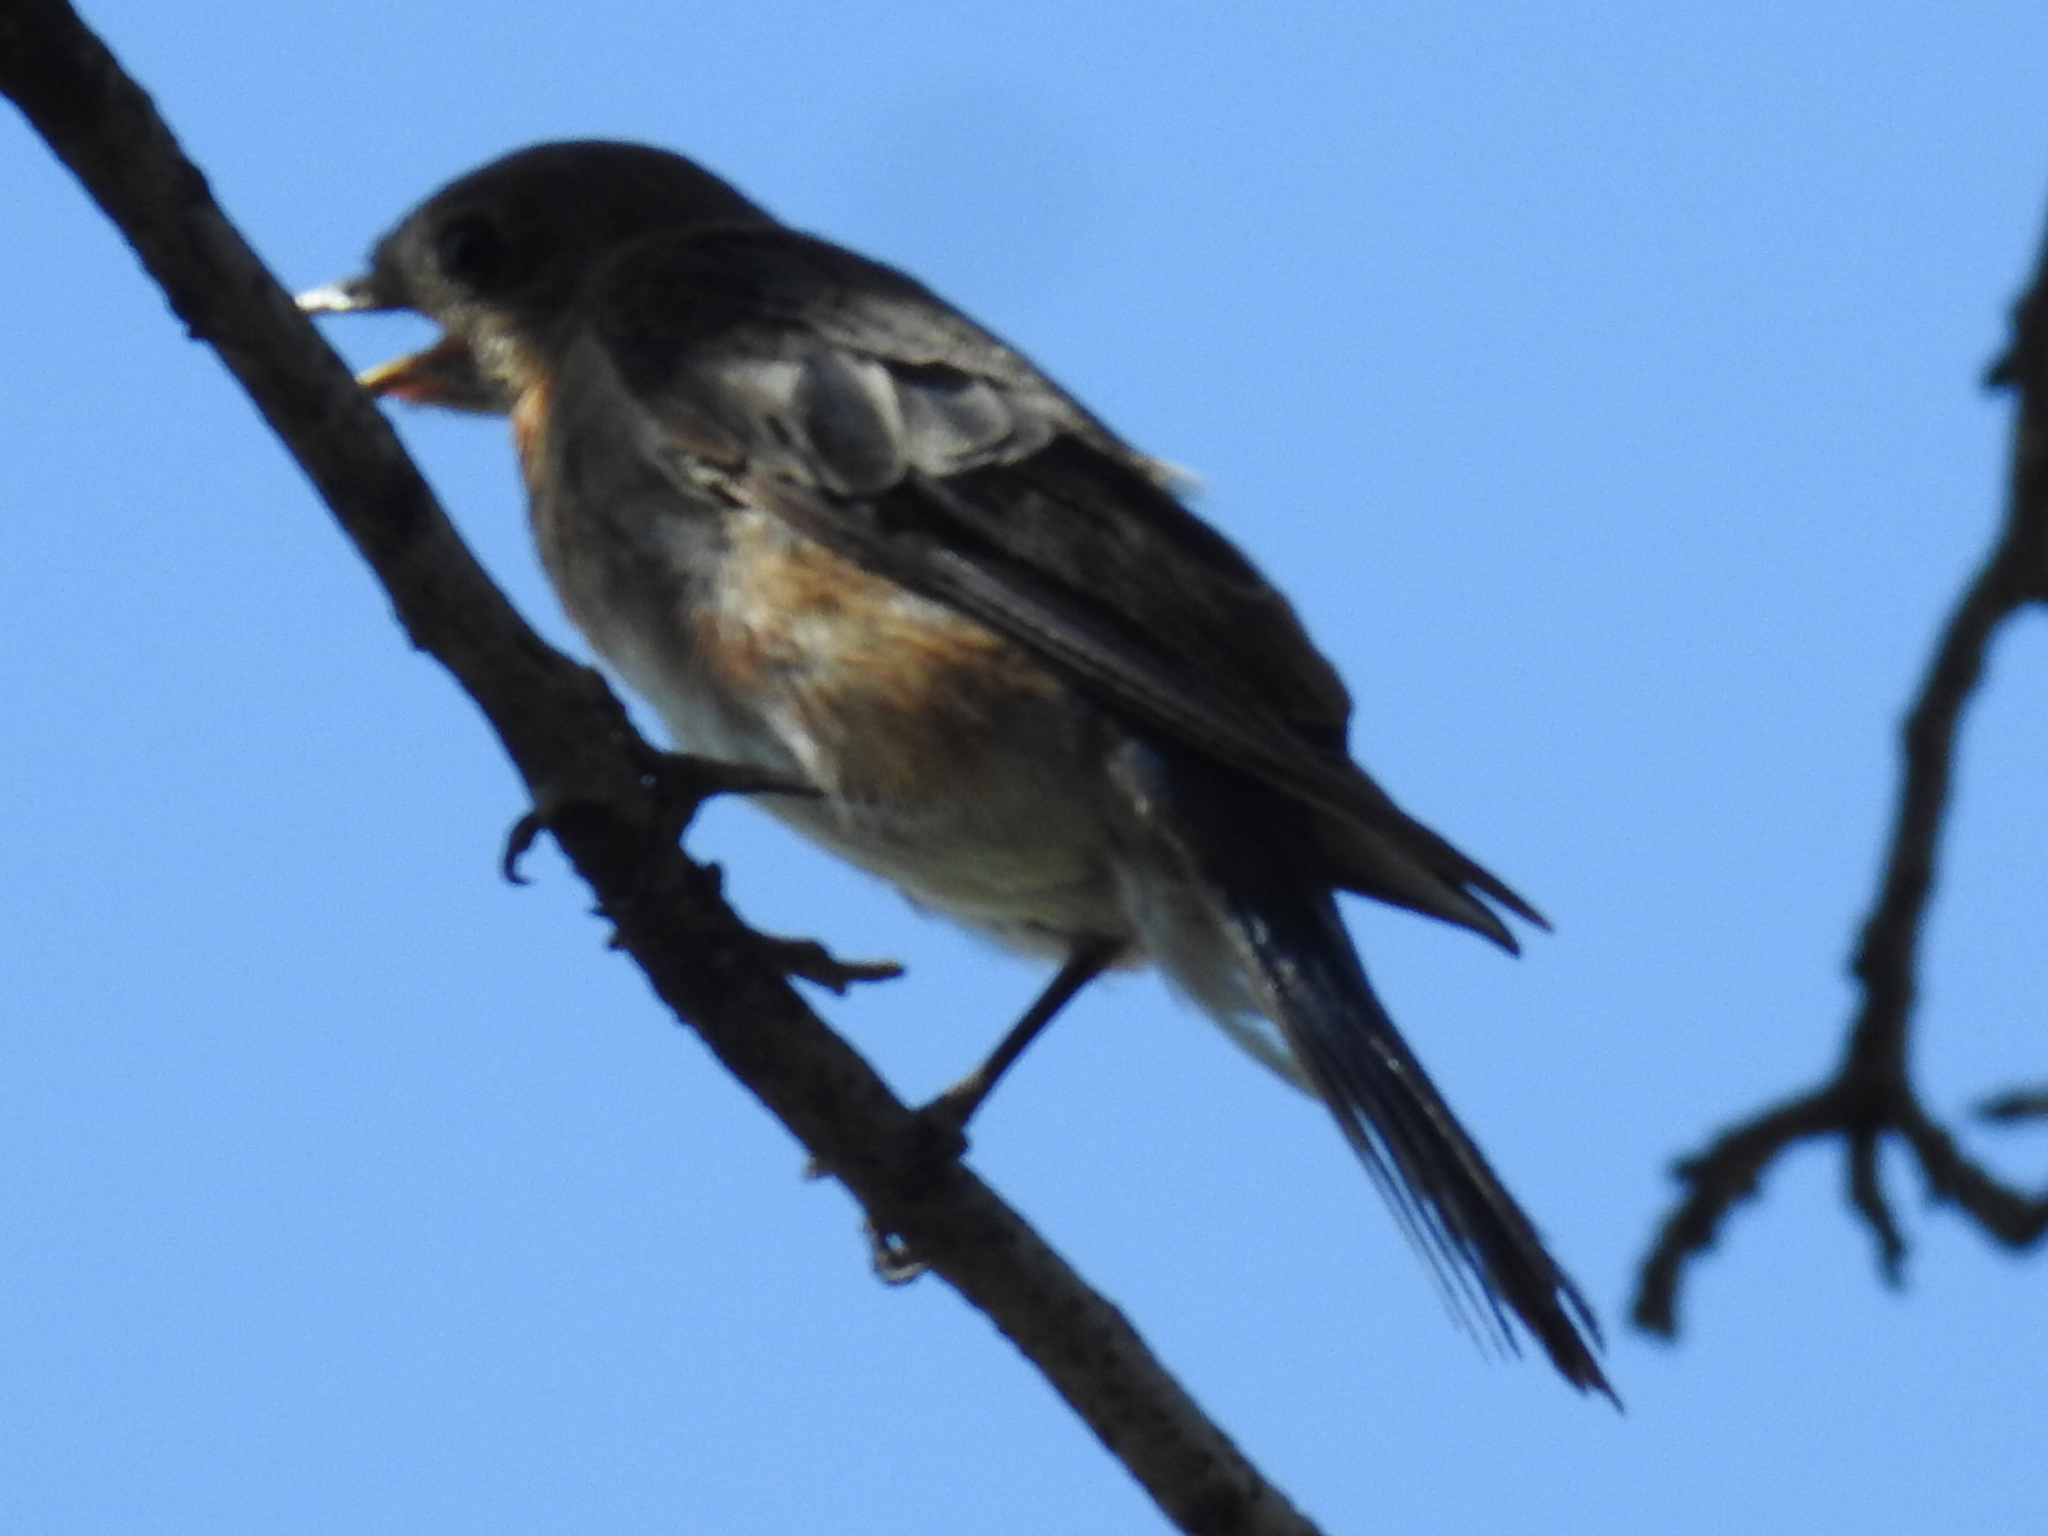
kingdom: Animalia
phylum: Chordata
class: Aves
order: Passeriformes
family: Turdidae
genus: Sialia
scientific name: Sialia sialis
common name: Eastern bluebird
